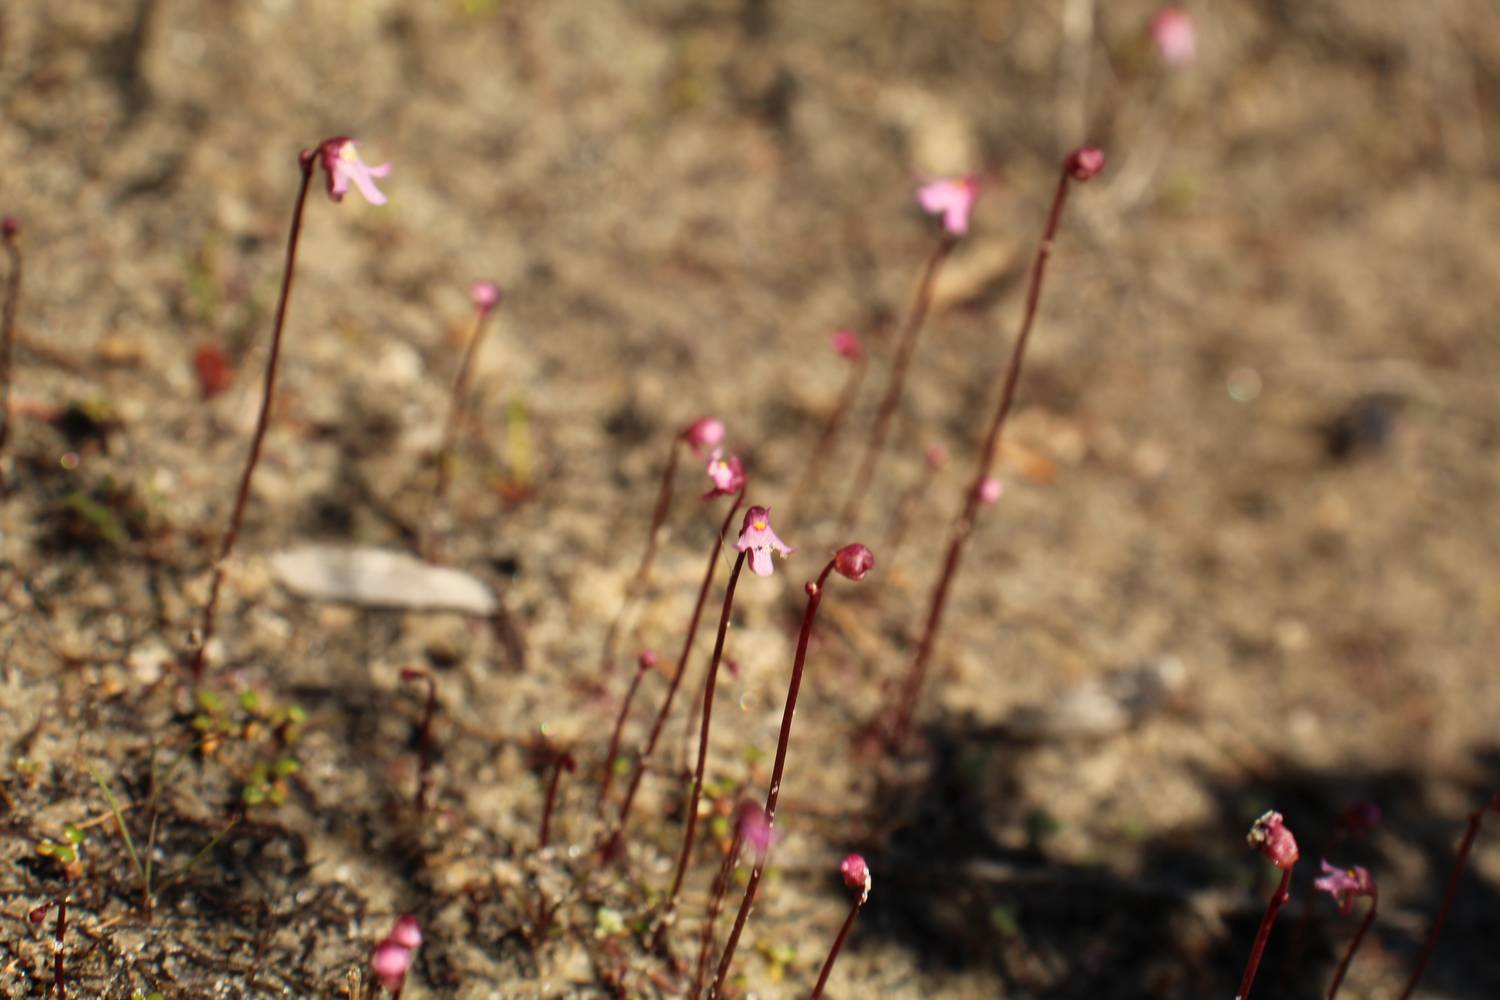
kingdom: Plantae
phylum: Tracheophyta
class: Magnoliopsida
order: Lamiales
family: Lentibulariaceae
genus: Utricularia
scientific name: Utricularia tenella
